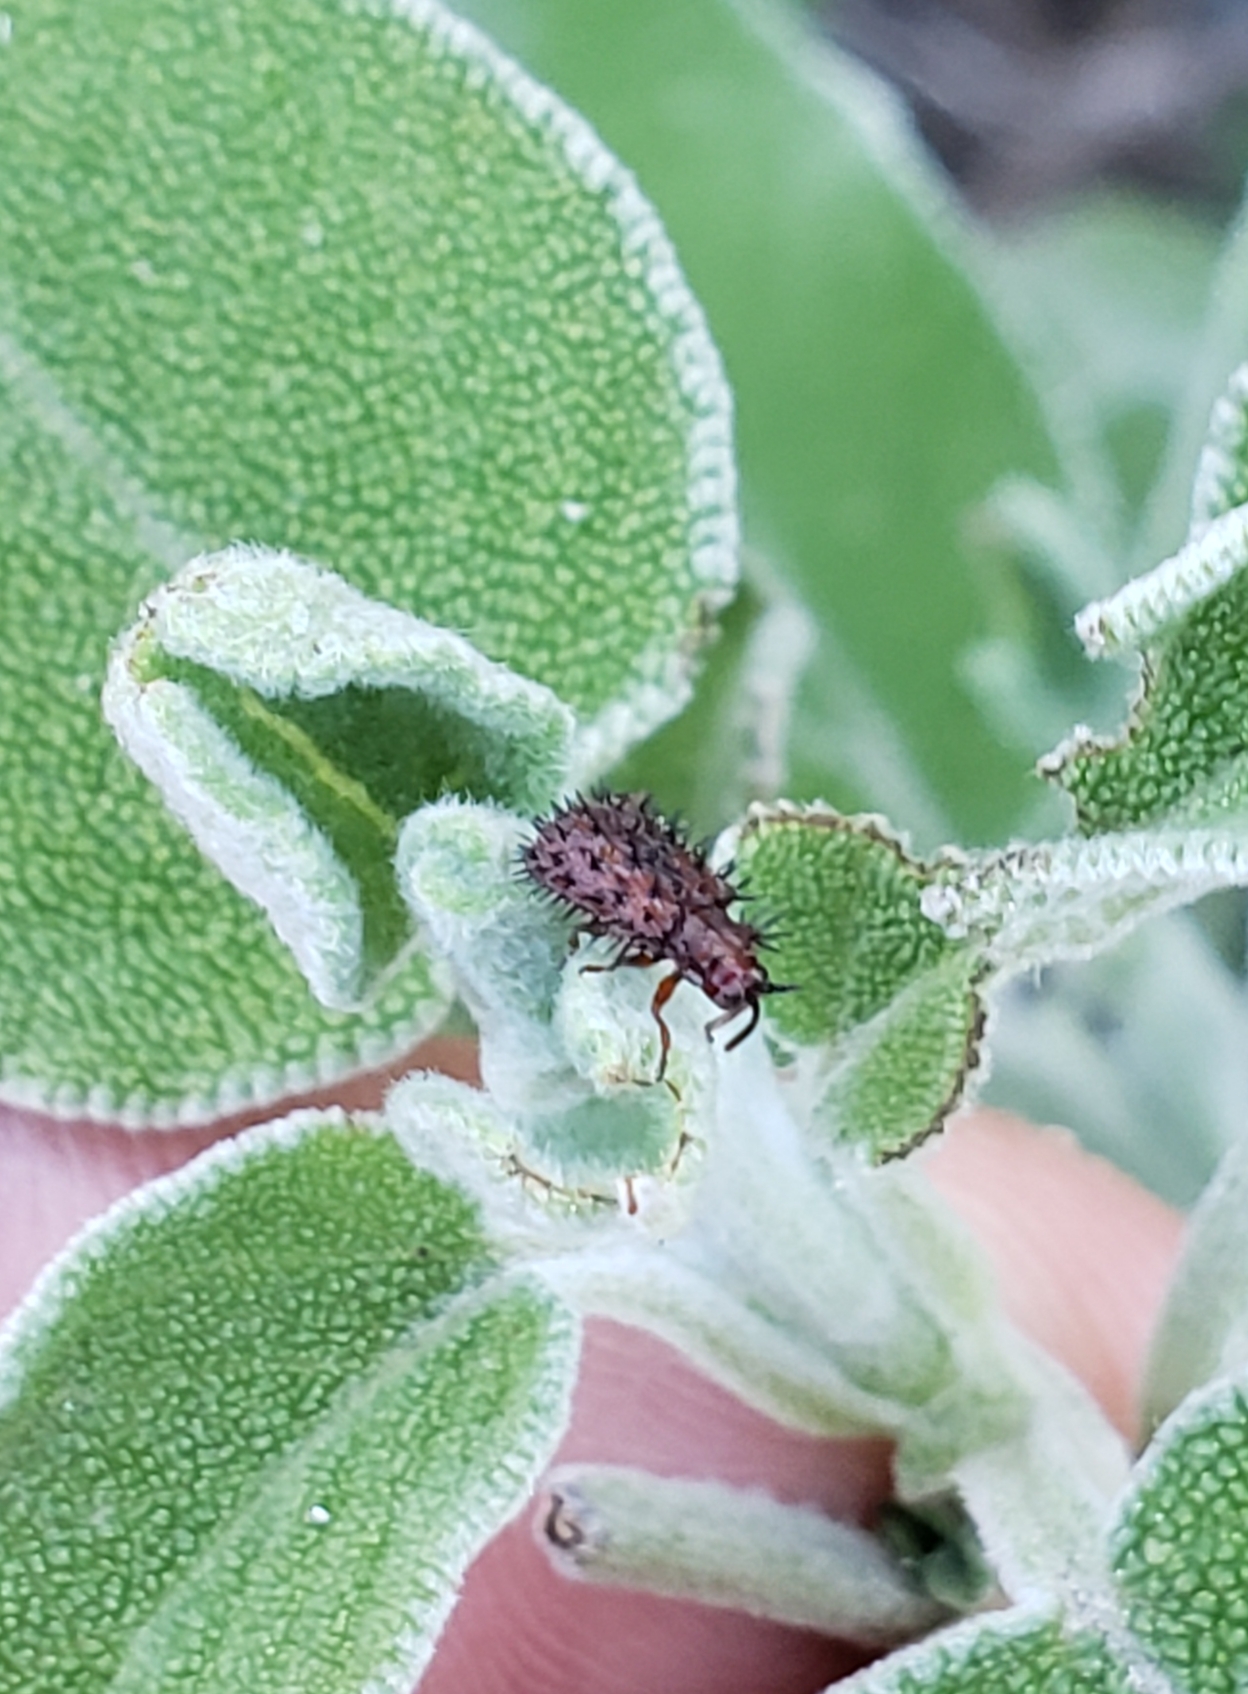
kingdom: Animalia
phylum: Arthropoda
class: Insecta
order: Coleoptera
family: Chrysomelidae
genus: Dicladispa
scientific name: Dicladispa testacea
